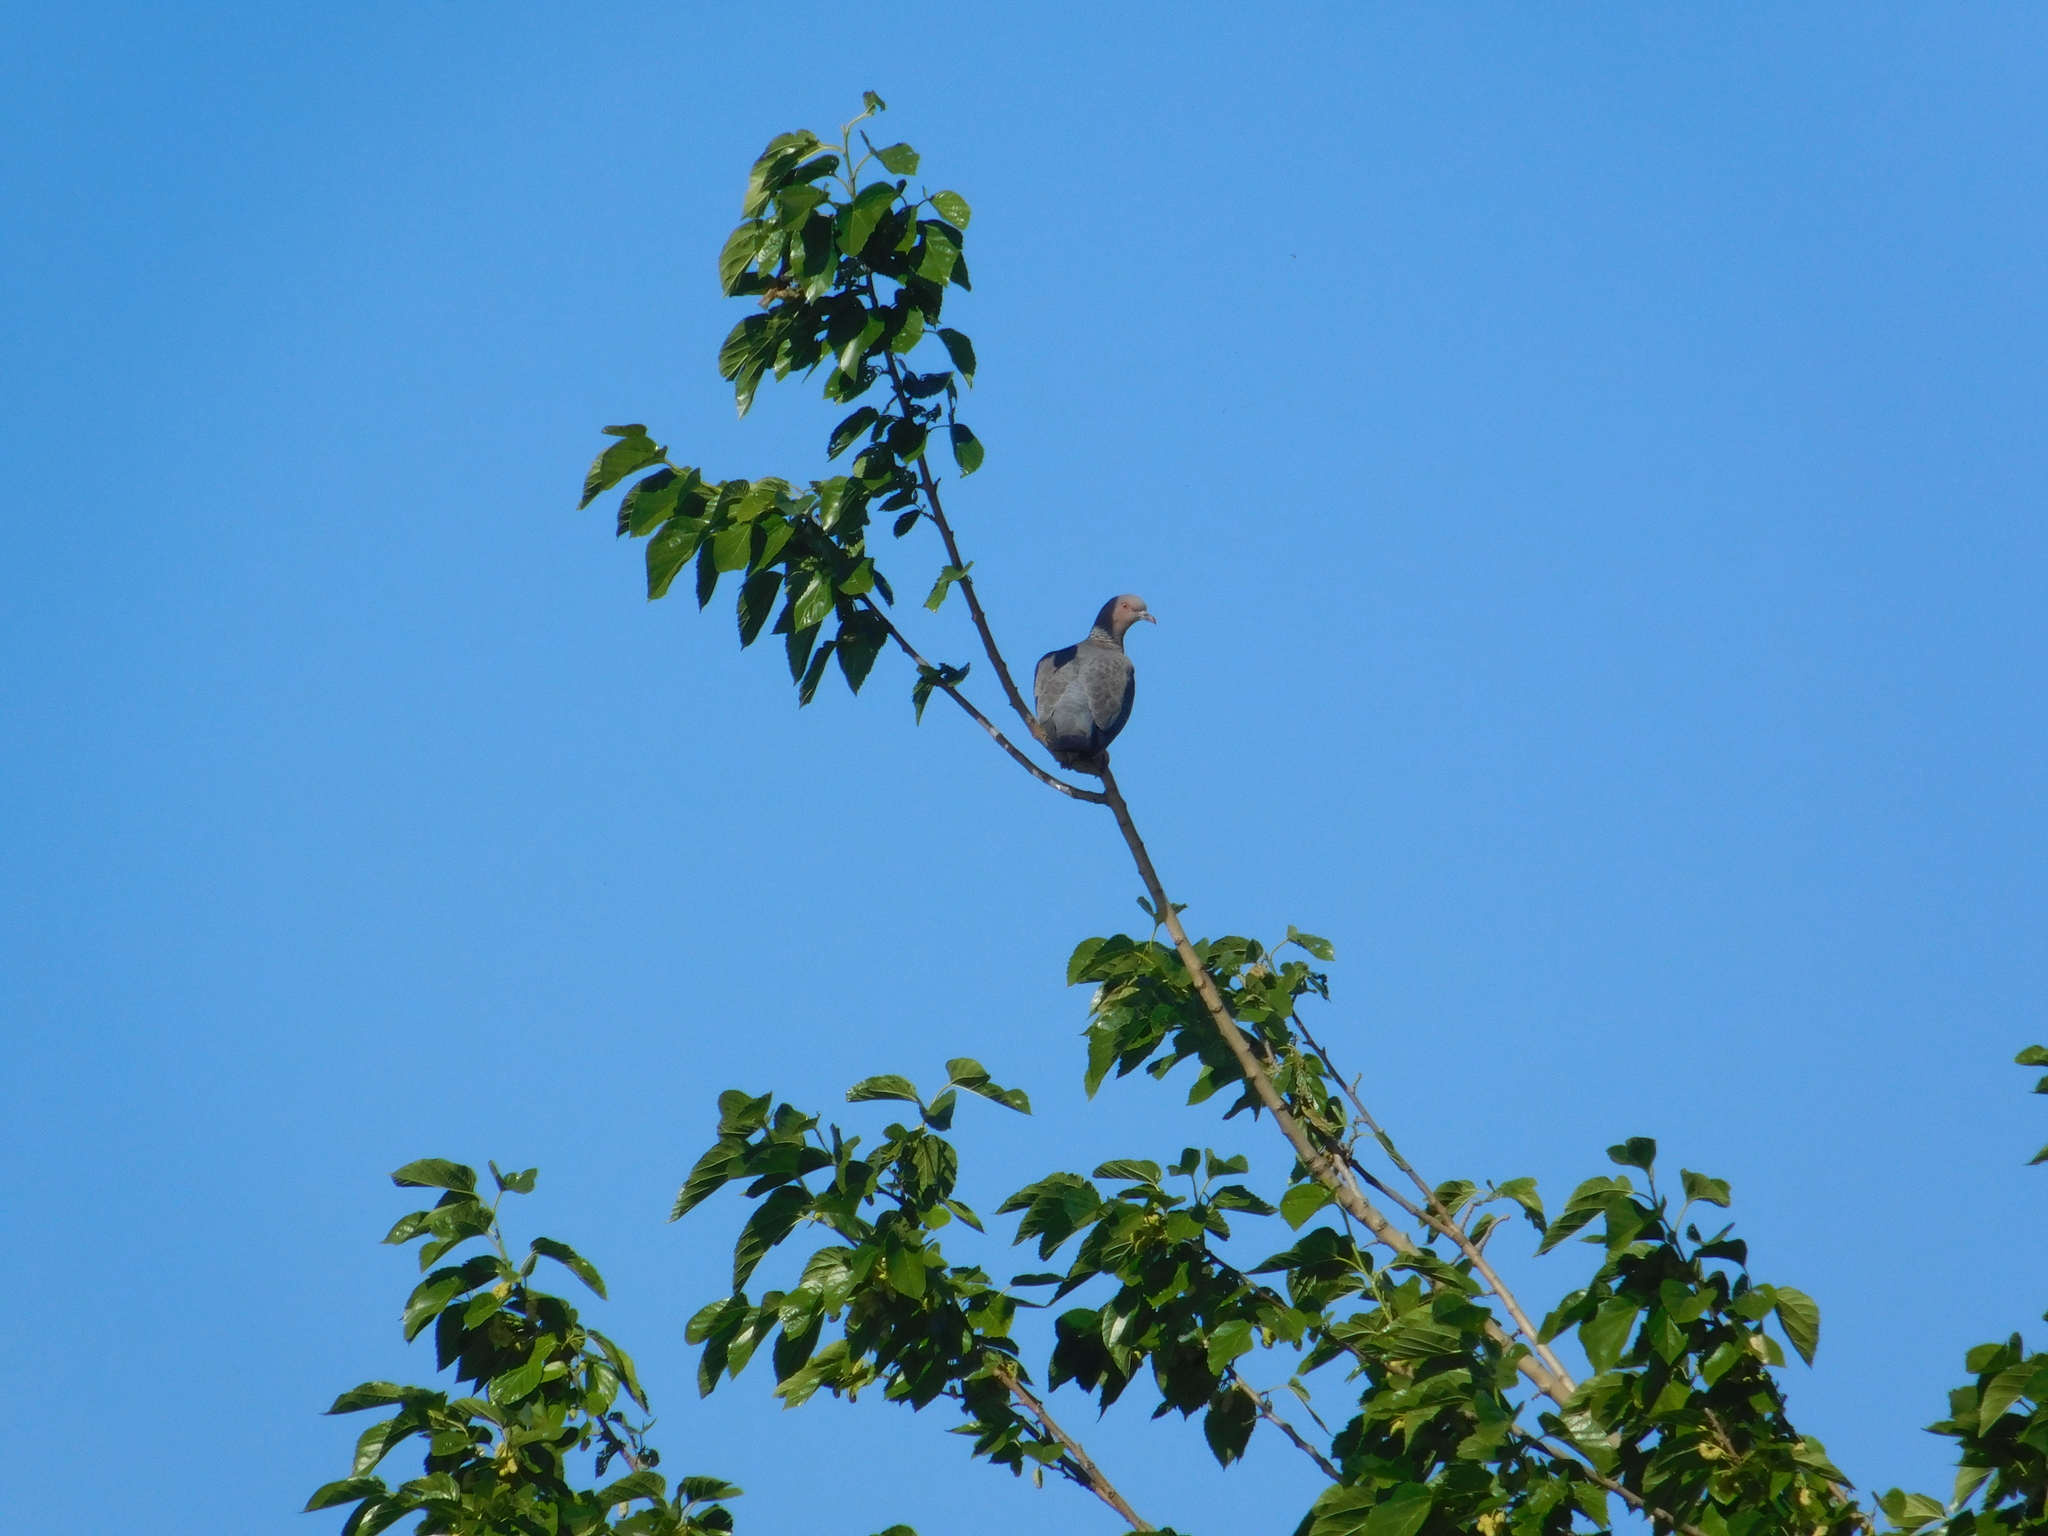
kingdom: Animalia
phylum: Chordata
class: Aves
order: Columbiformes
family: Columbidae
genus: Patagioenas
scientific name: Patagioenas picazuro
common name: Picazuro pigeon
